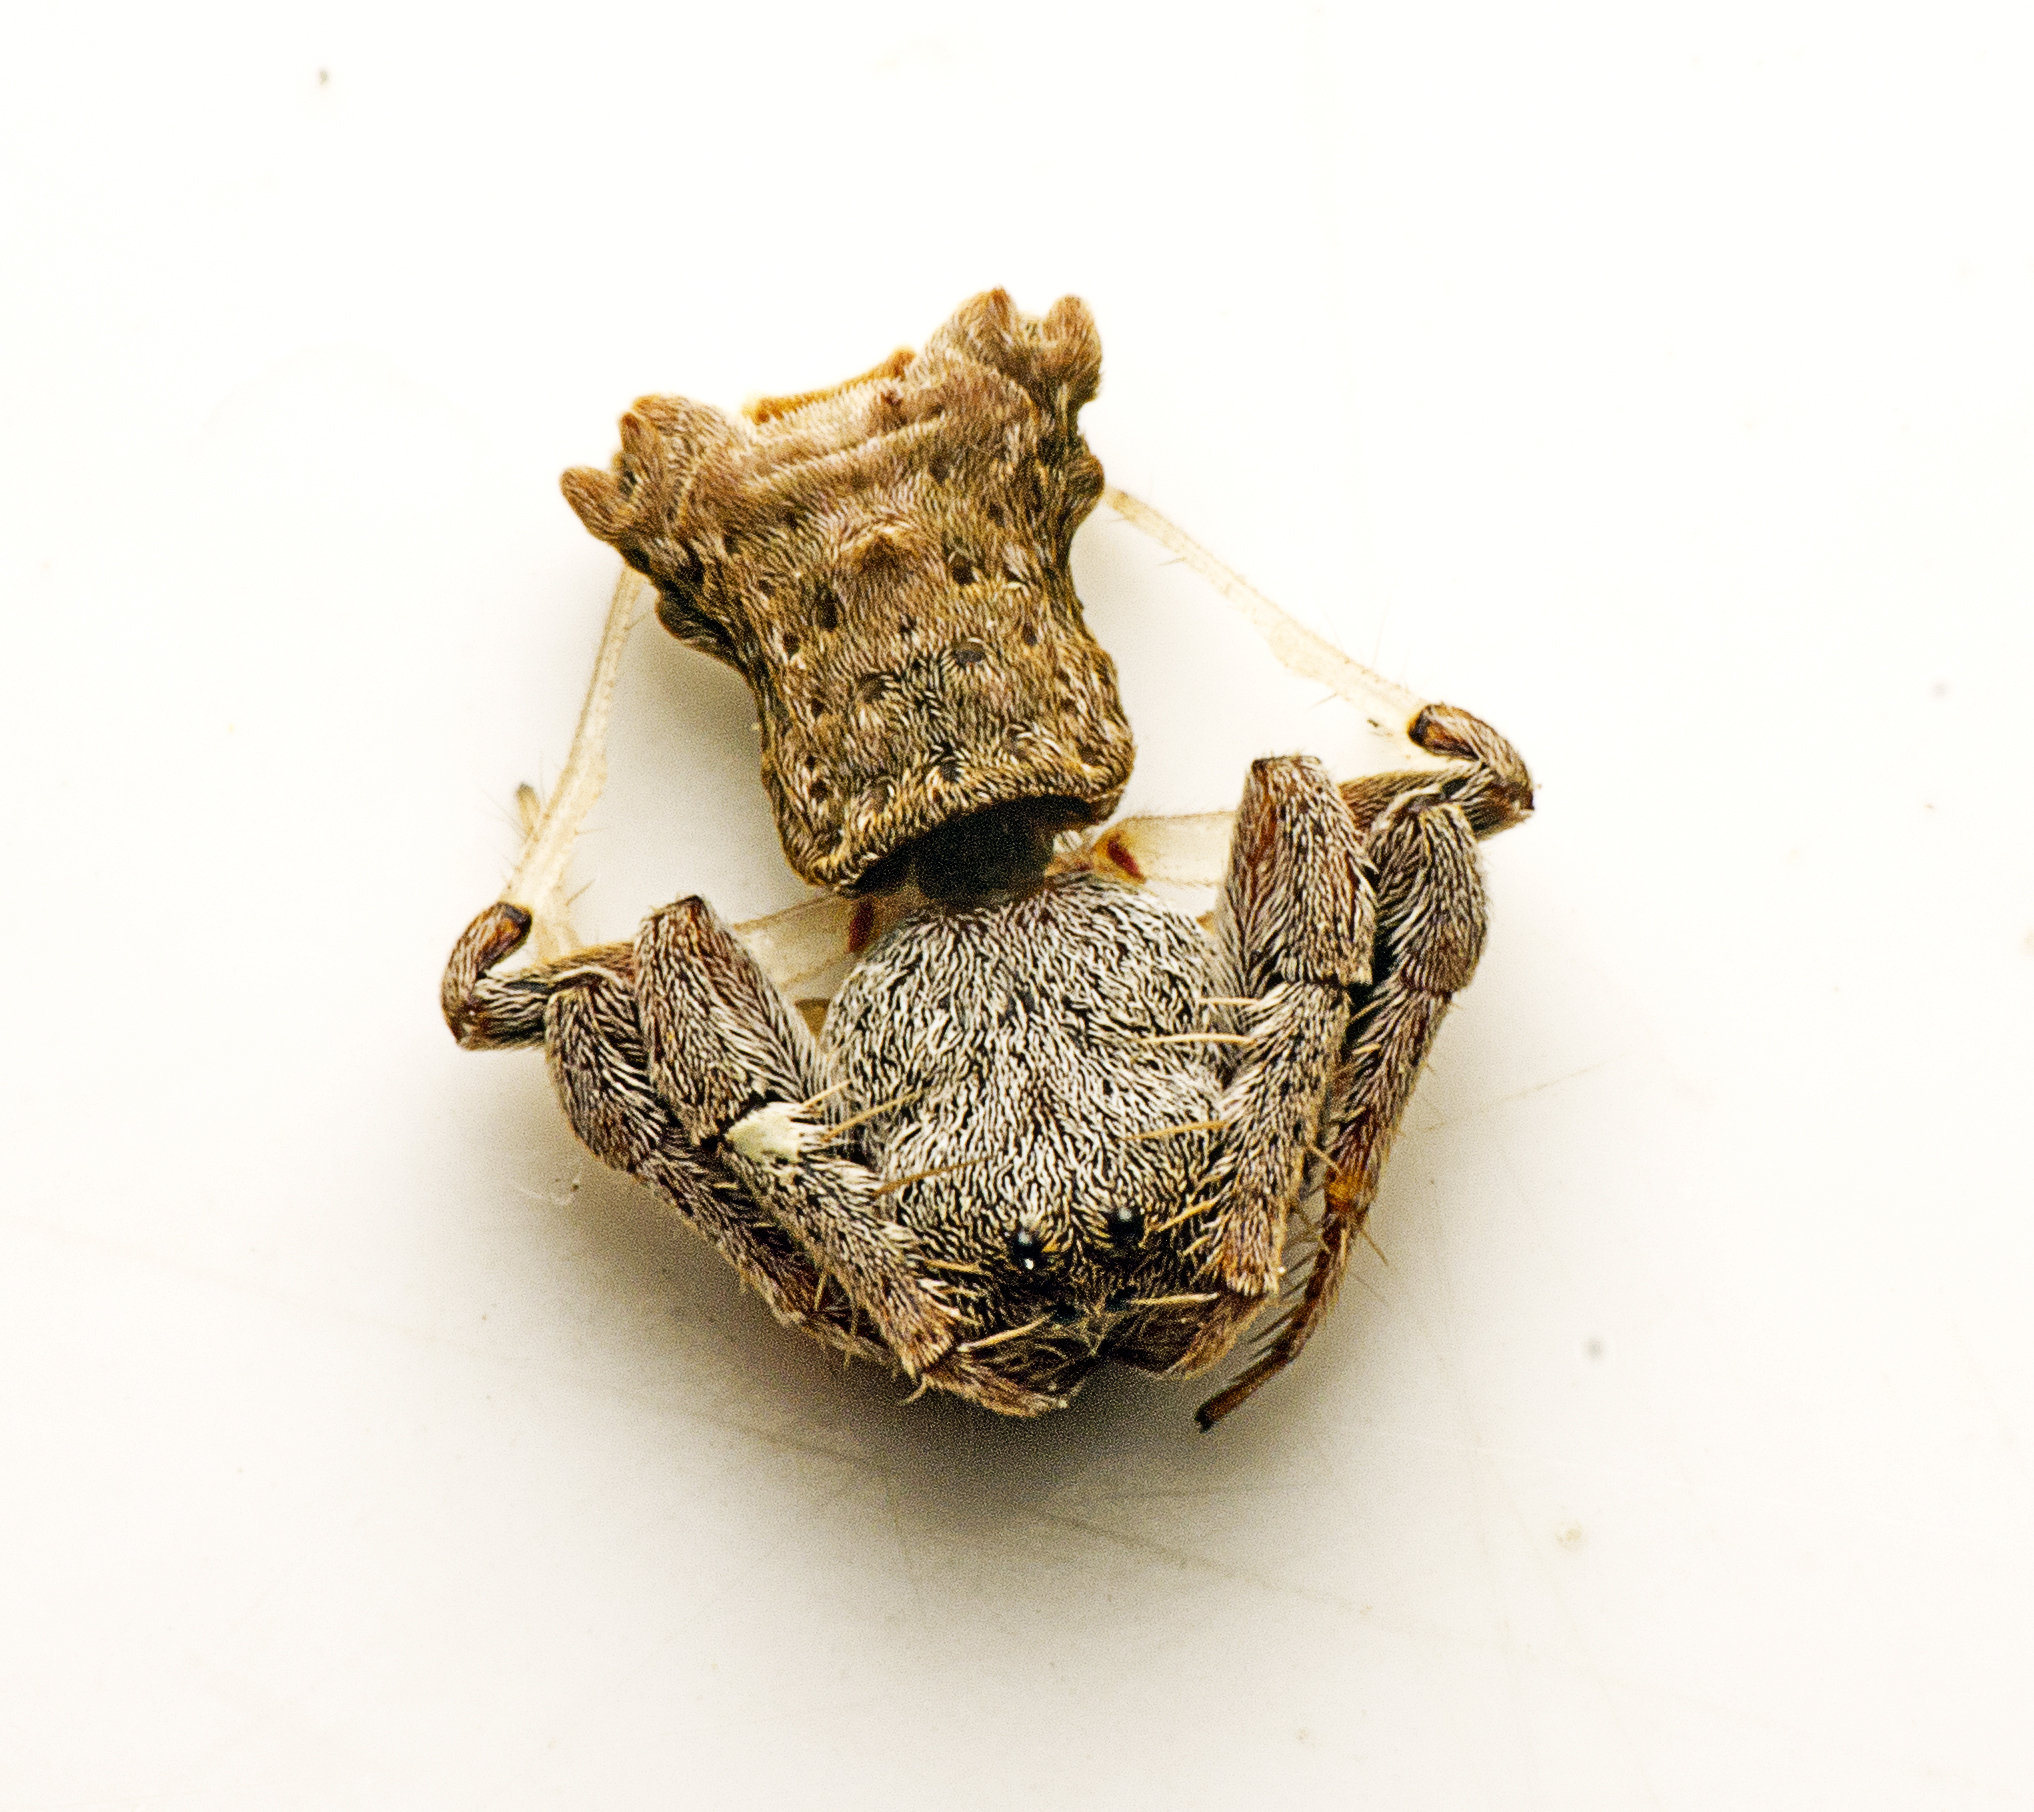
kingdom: Animalia
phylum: Arthropoda
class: Arachnida
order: Araneae
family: Arkyidae
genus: Arkys
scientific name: Arkys dilatatus
